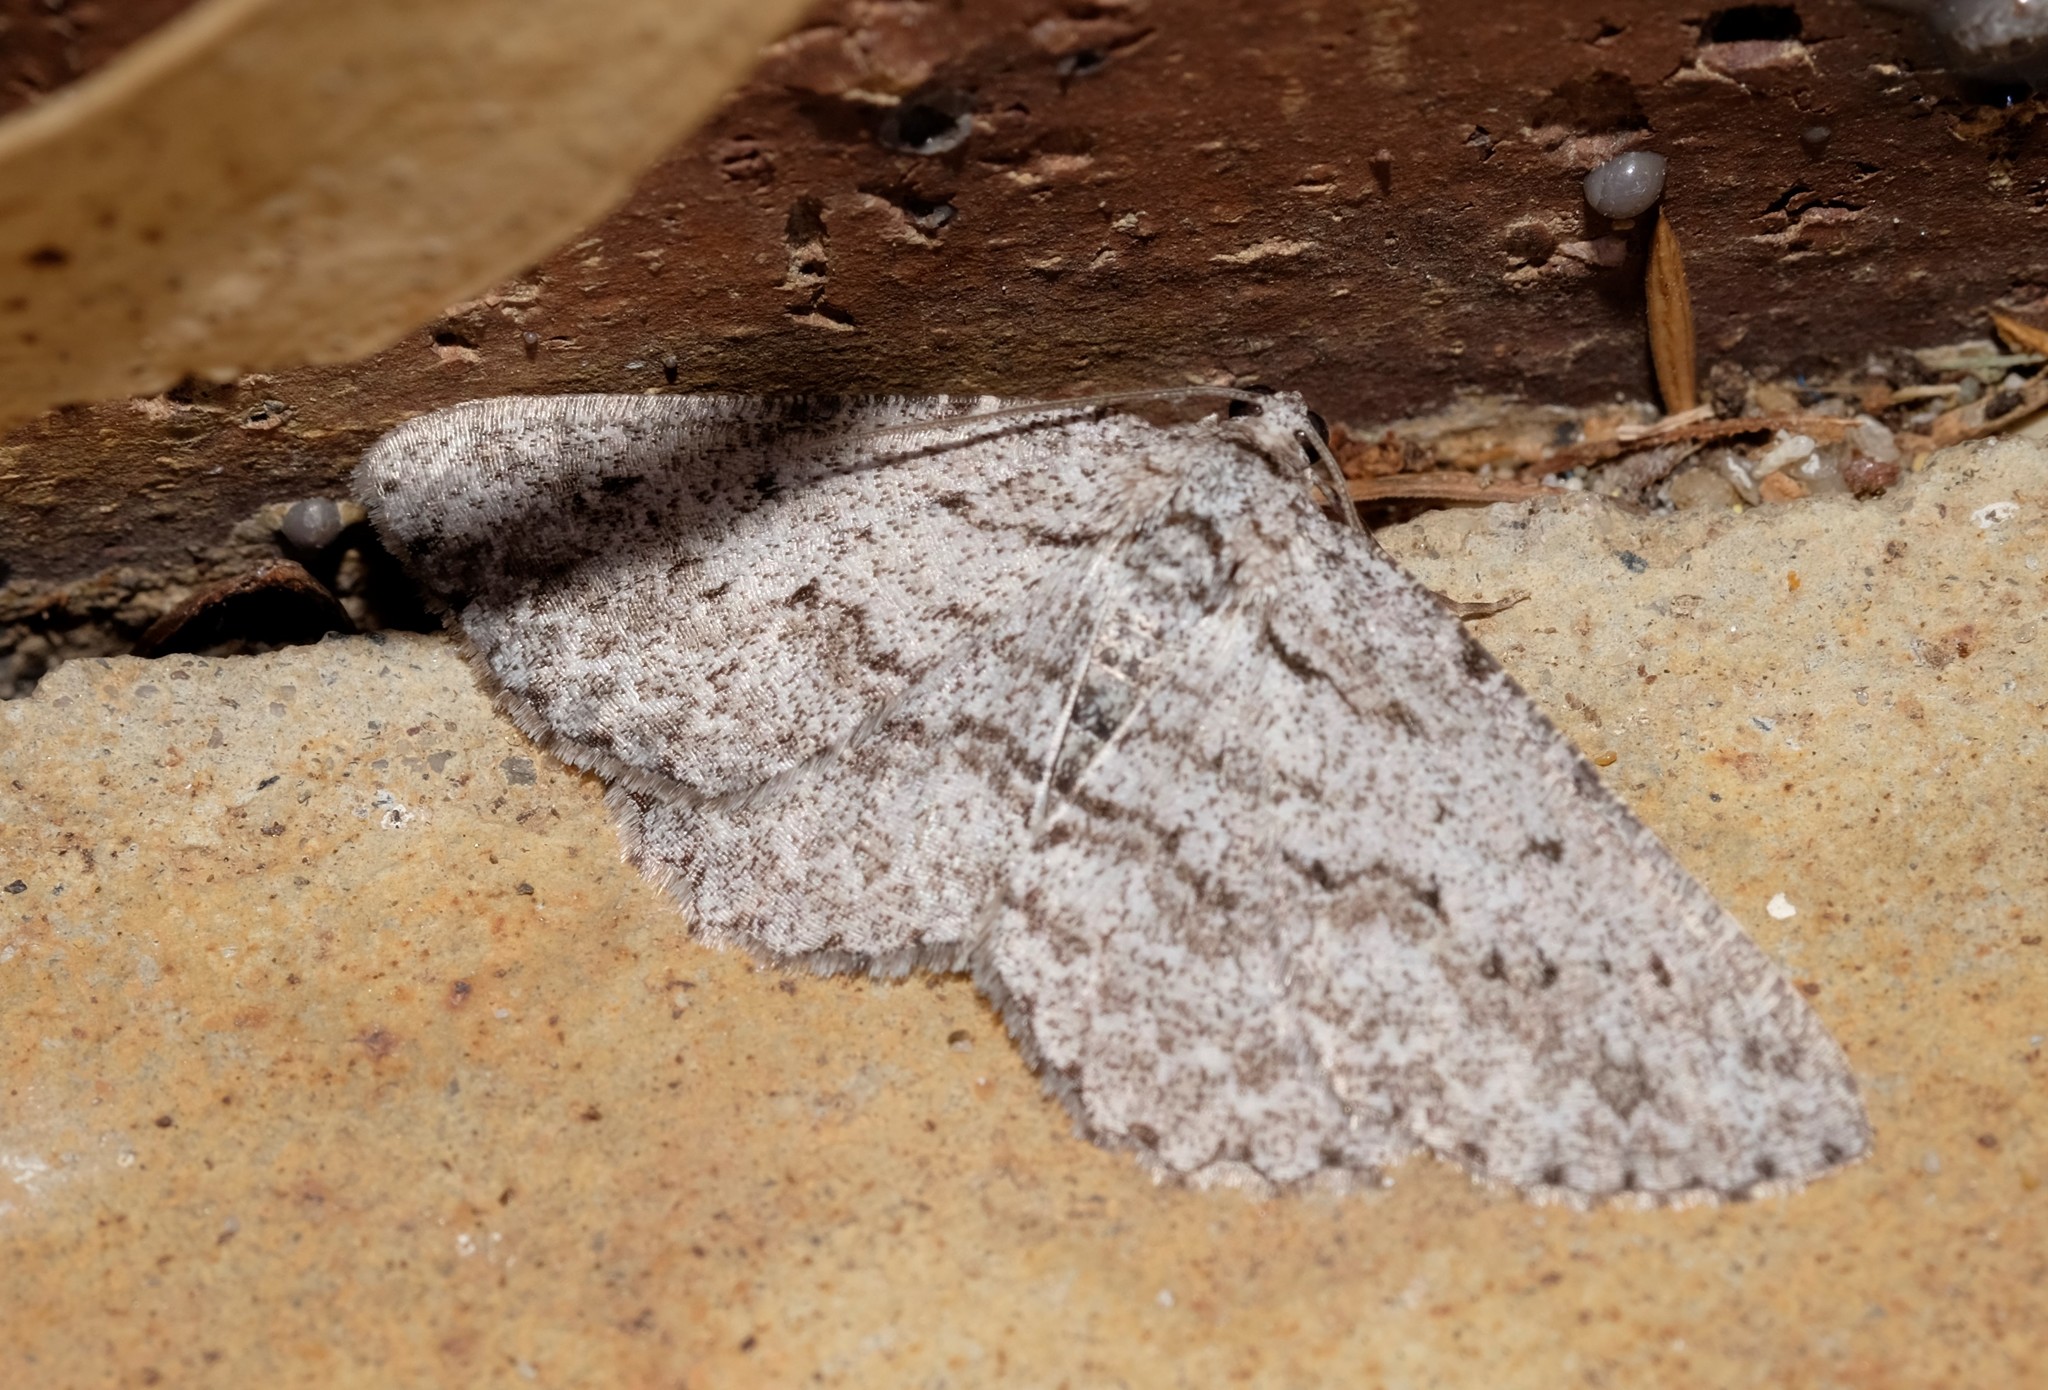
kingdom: Animalia
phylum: Arthropoda
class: Insecta
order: Lepidoptera
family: Geometridae
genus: Psilosticha
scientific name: Psilosticha absorpta
